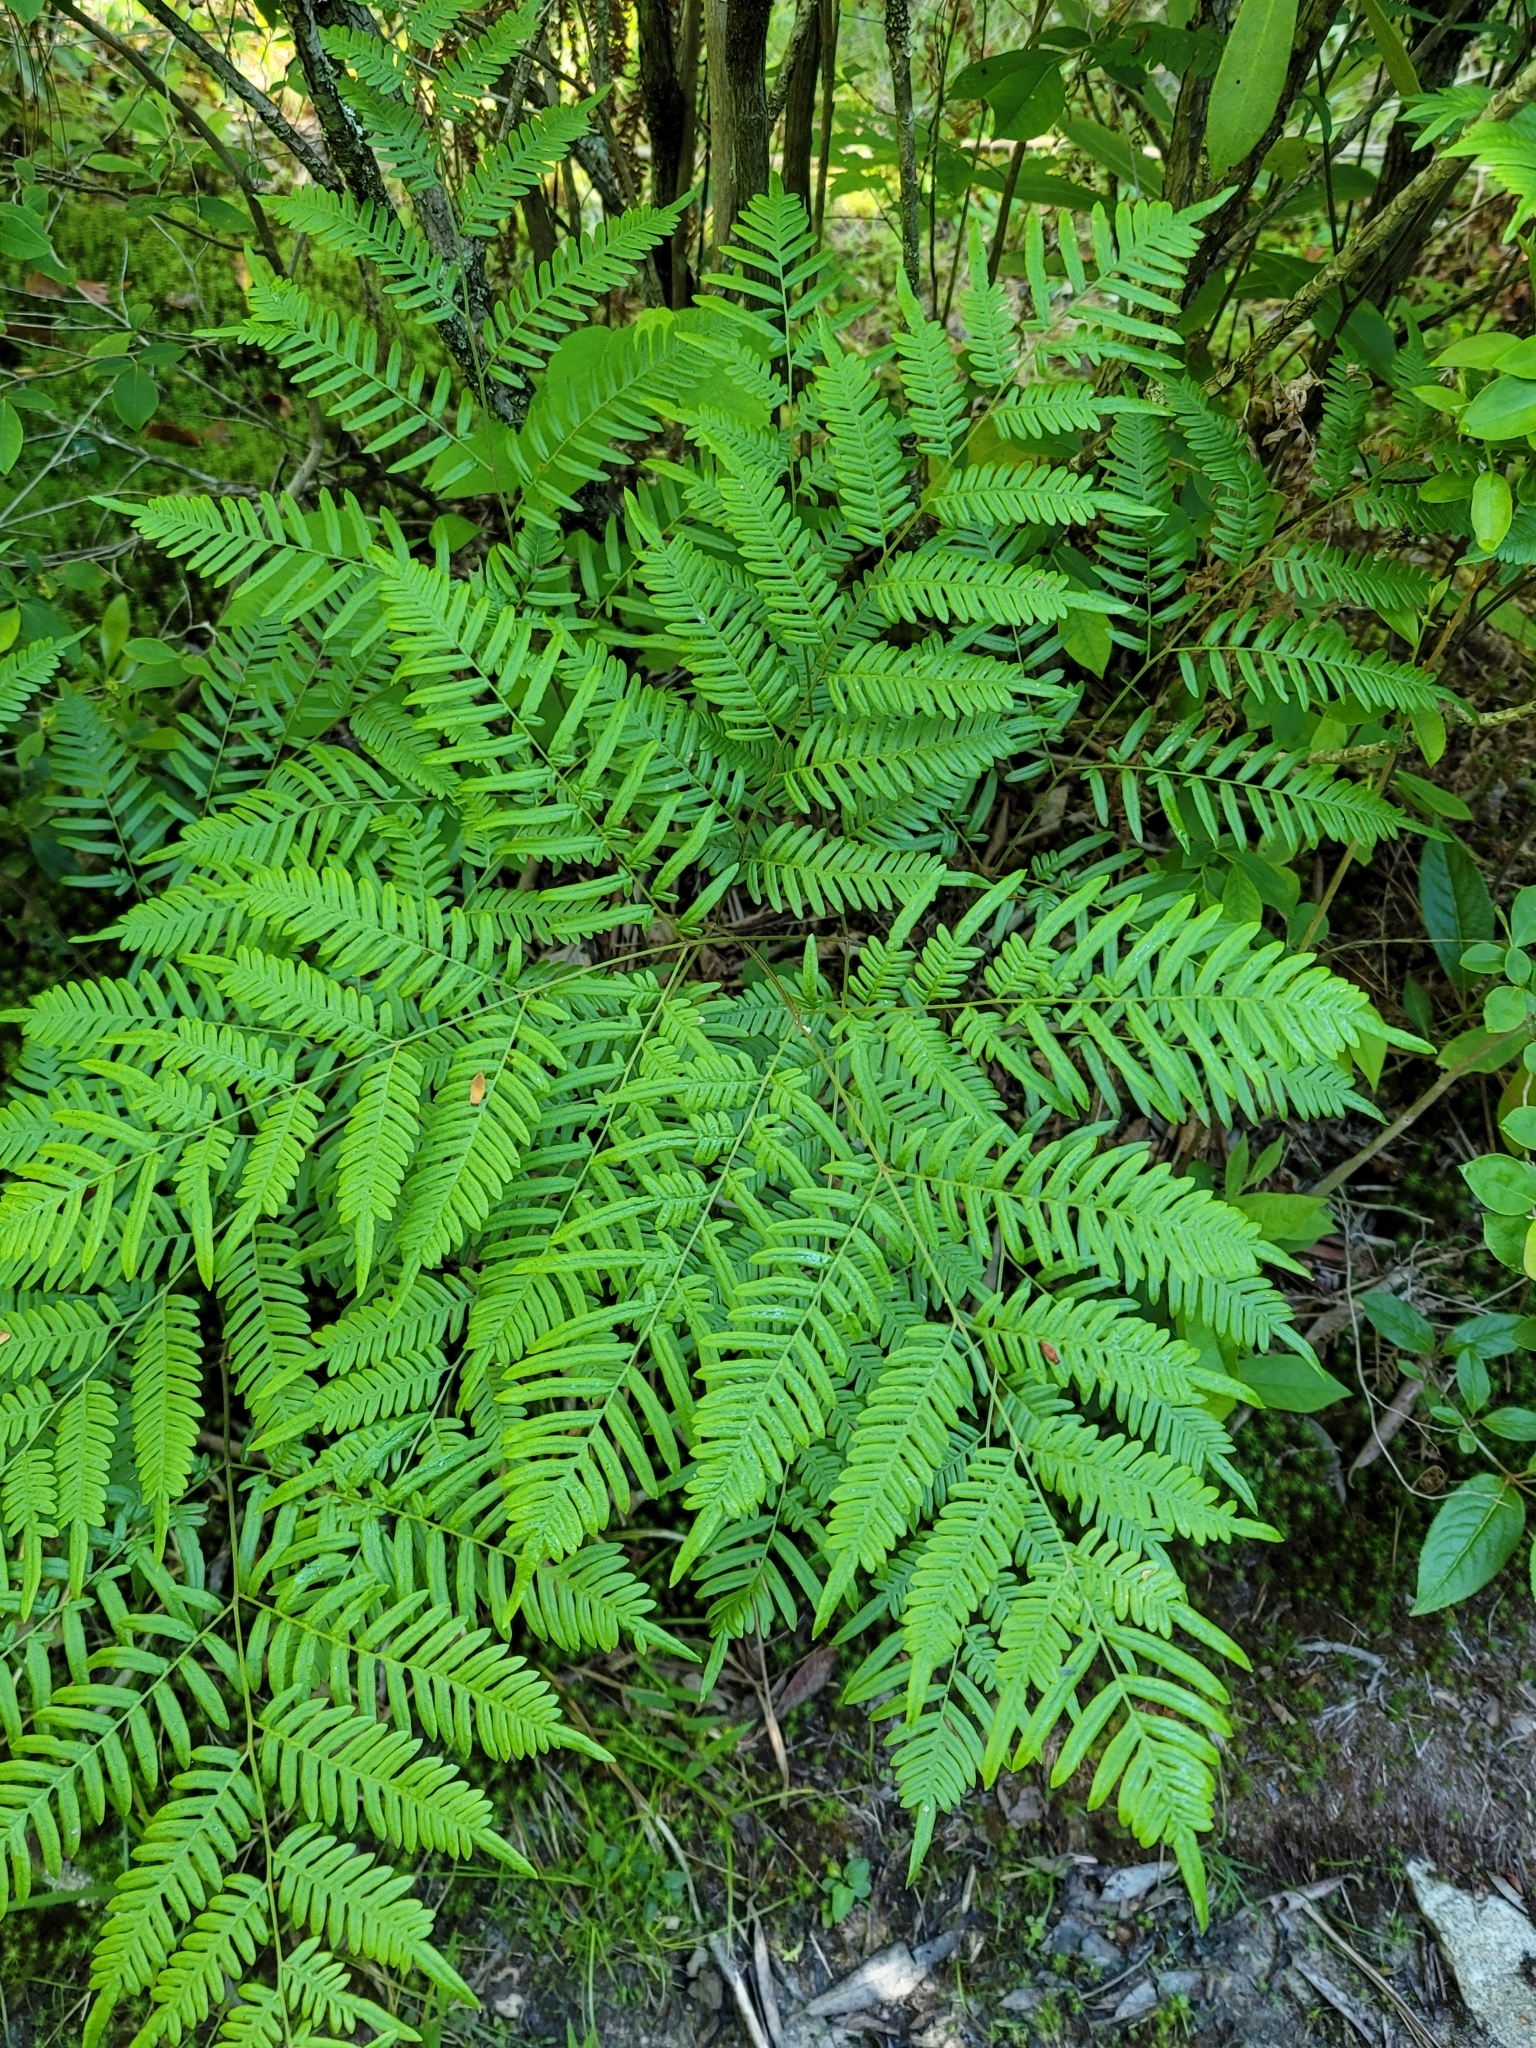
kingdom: Plantae
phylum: Tracheophyta
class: Polypodiopsida
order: Polypodiales
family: Dennstaedtiaceae
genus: Pteridium
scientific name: Pteridium
